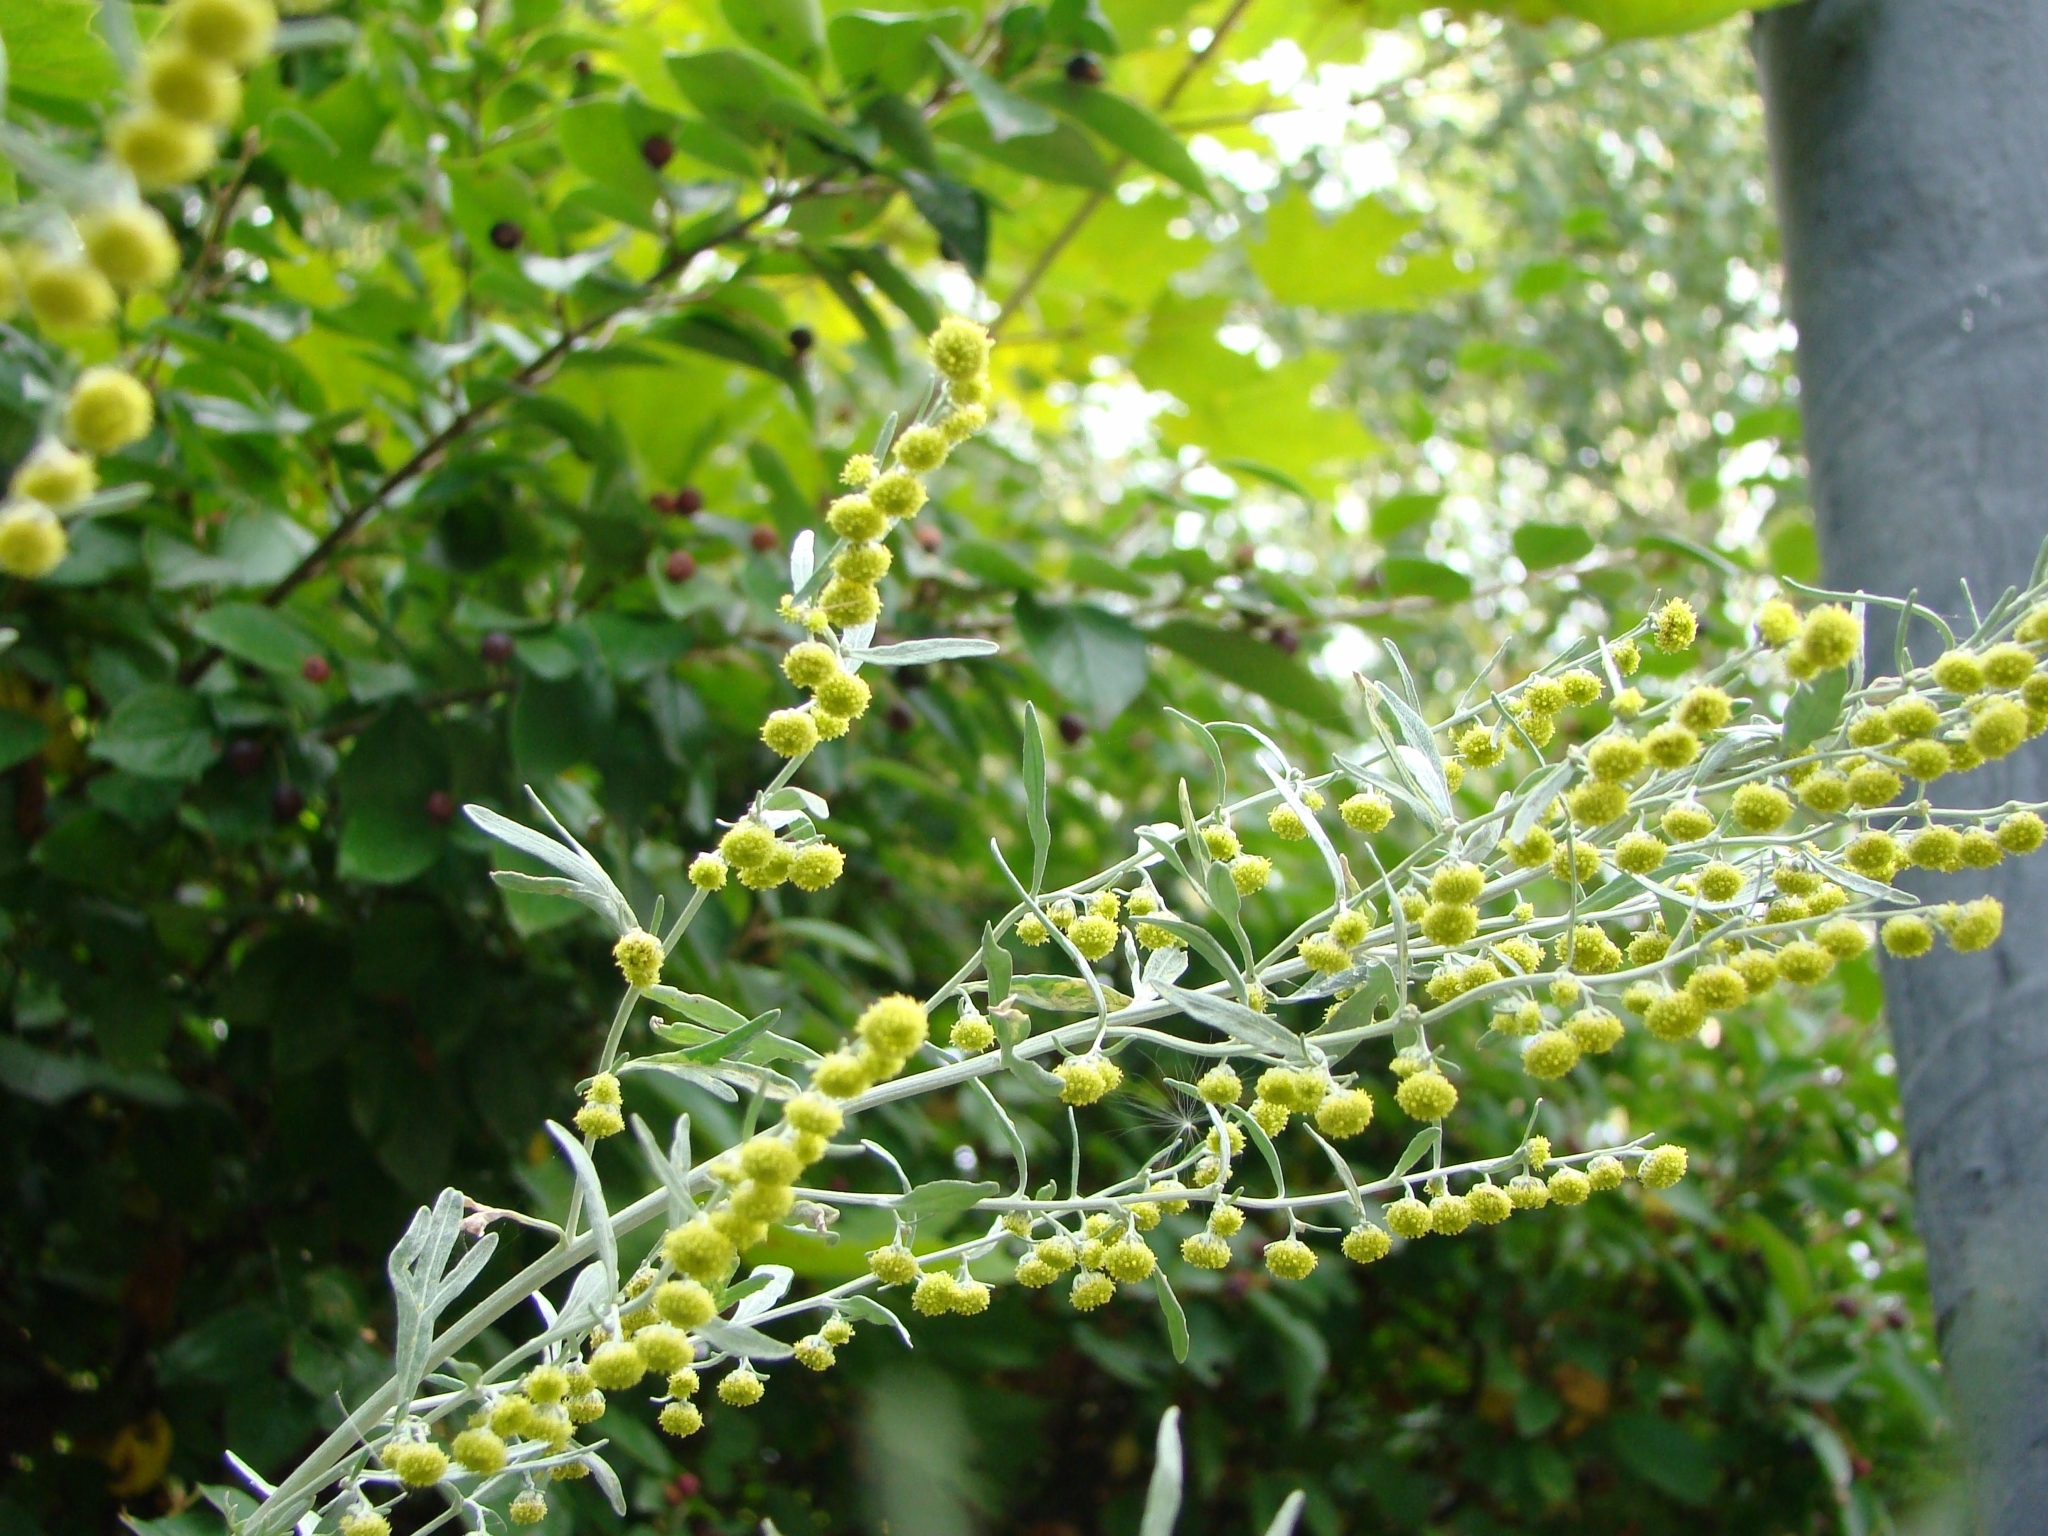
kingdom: Plantae
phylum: Tracheophyta
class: Magnoliopsida
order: Asterales
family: Asteraceae
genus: Artemisia
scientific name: Artemisia sieversiana
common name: Sieversian wormwood
